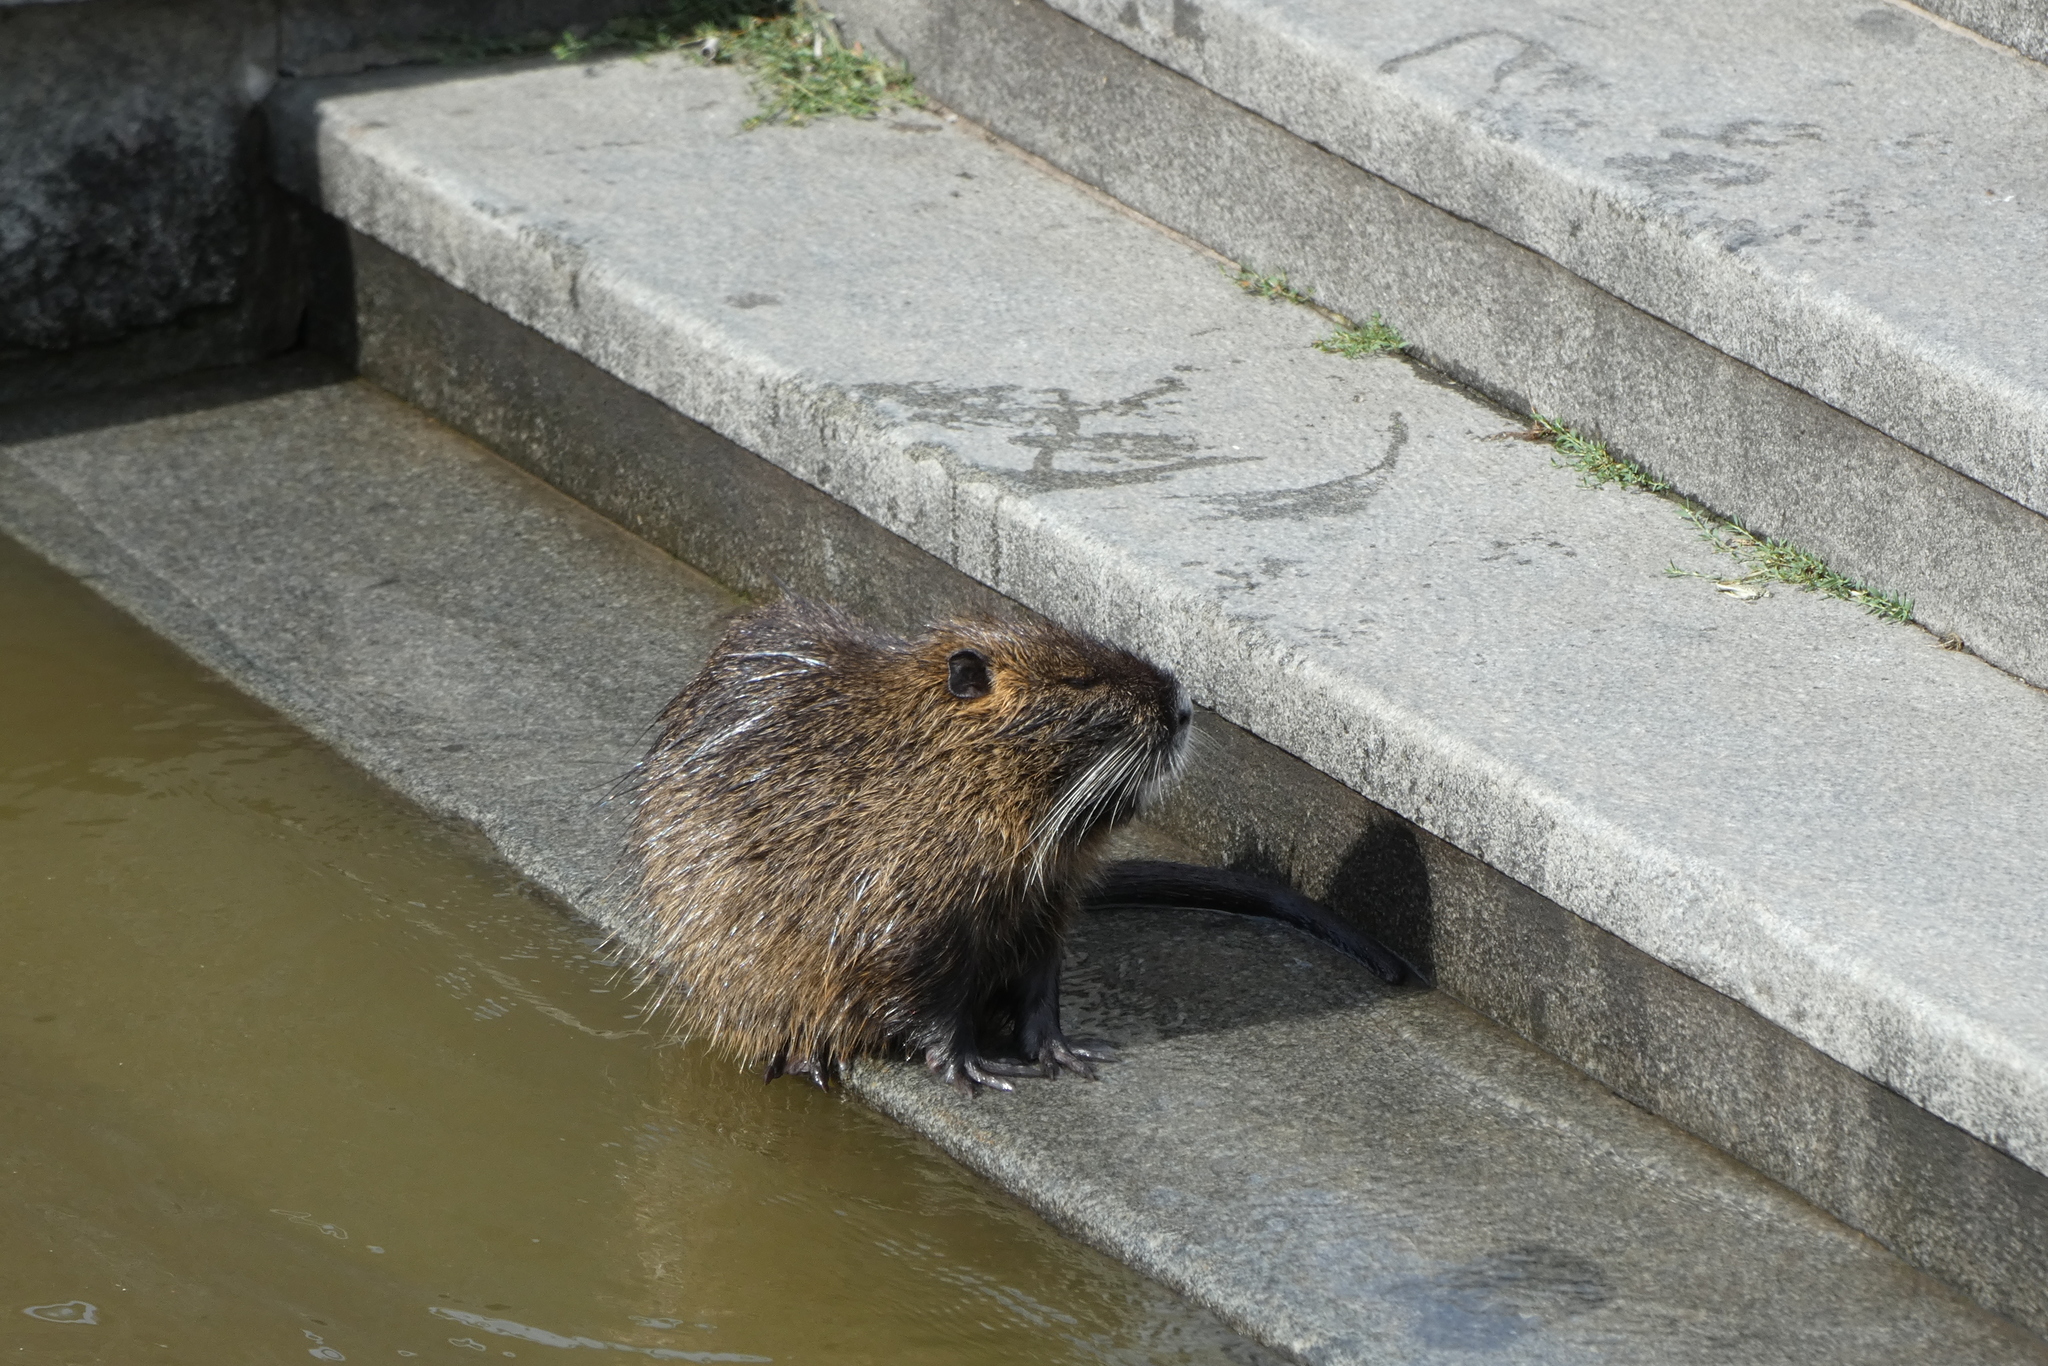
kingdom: Animalia
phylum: Chordata
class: Mammalia
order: Rodentia
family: Myocastoridae
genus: Myocastor
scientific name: Myocastor coypus
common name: Coypu
